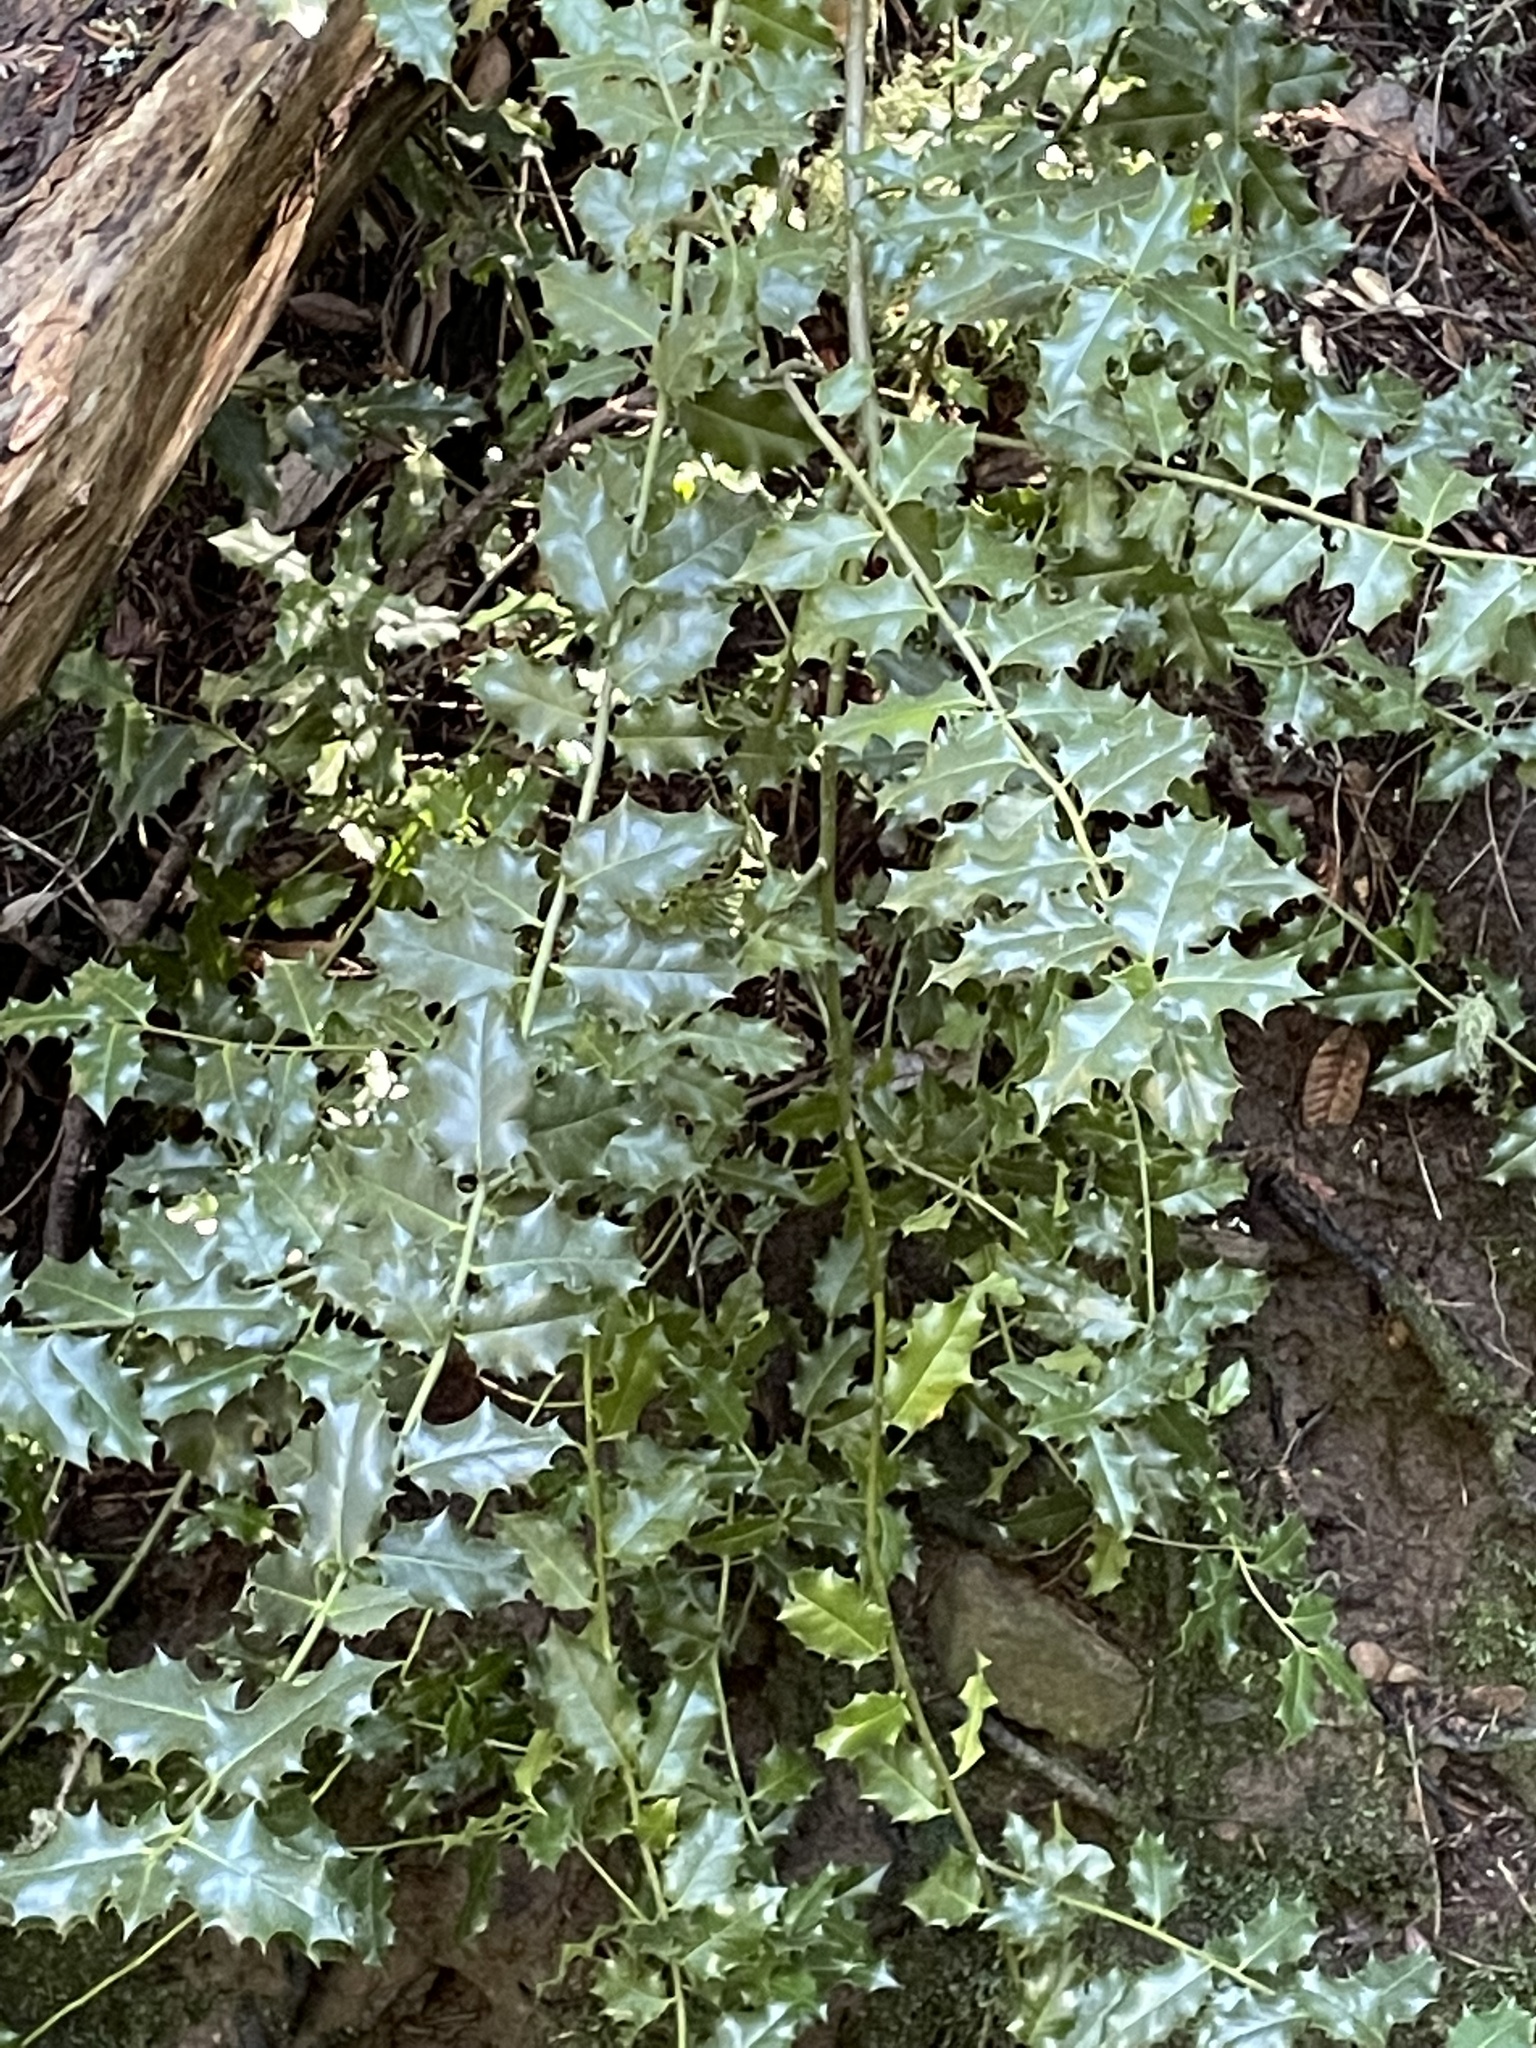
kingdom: Plantae
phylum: Tracheophyta
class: Magnoliopsida
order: Aquifoliales
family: Aquifoliaceae
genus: Ilex
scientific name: Ilex aquifolium
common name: English holly
